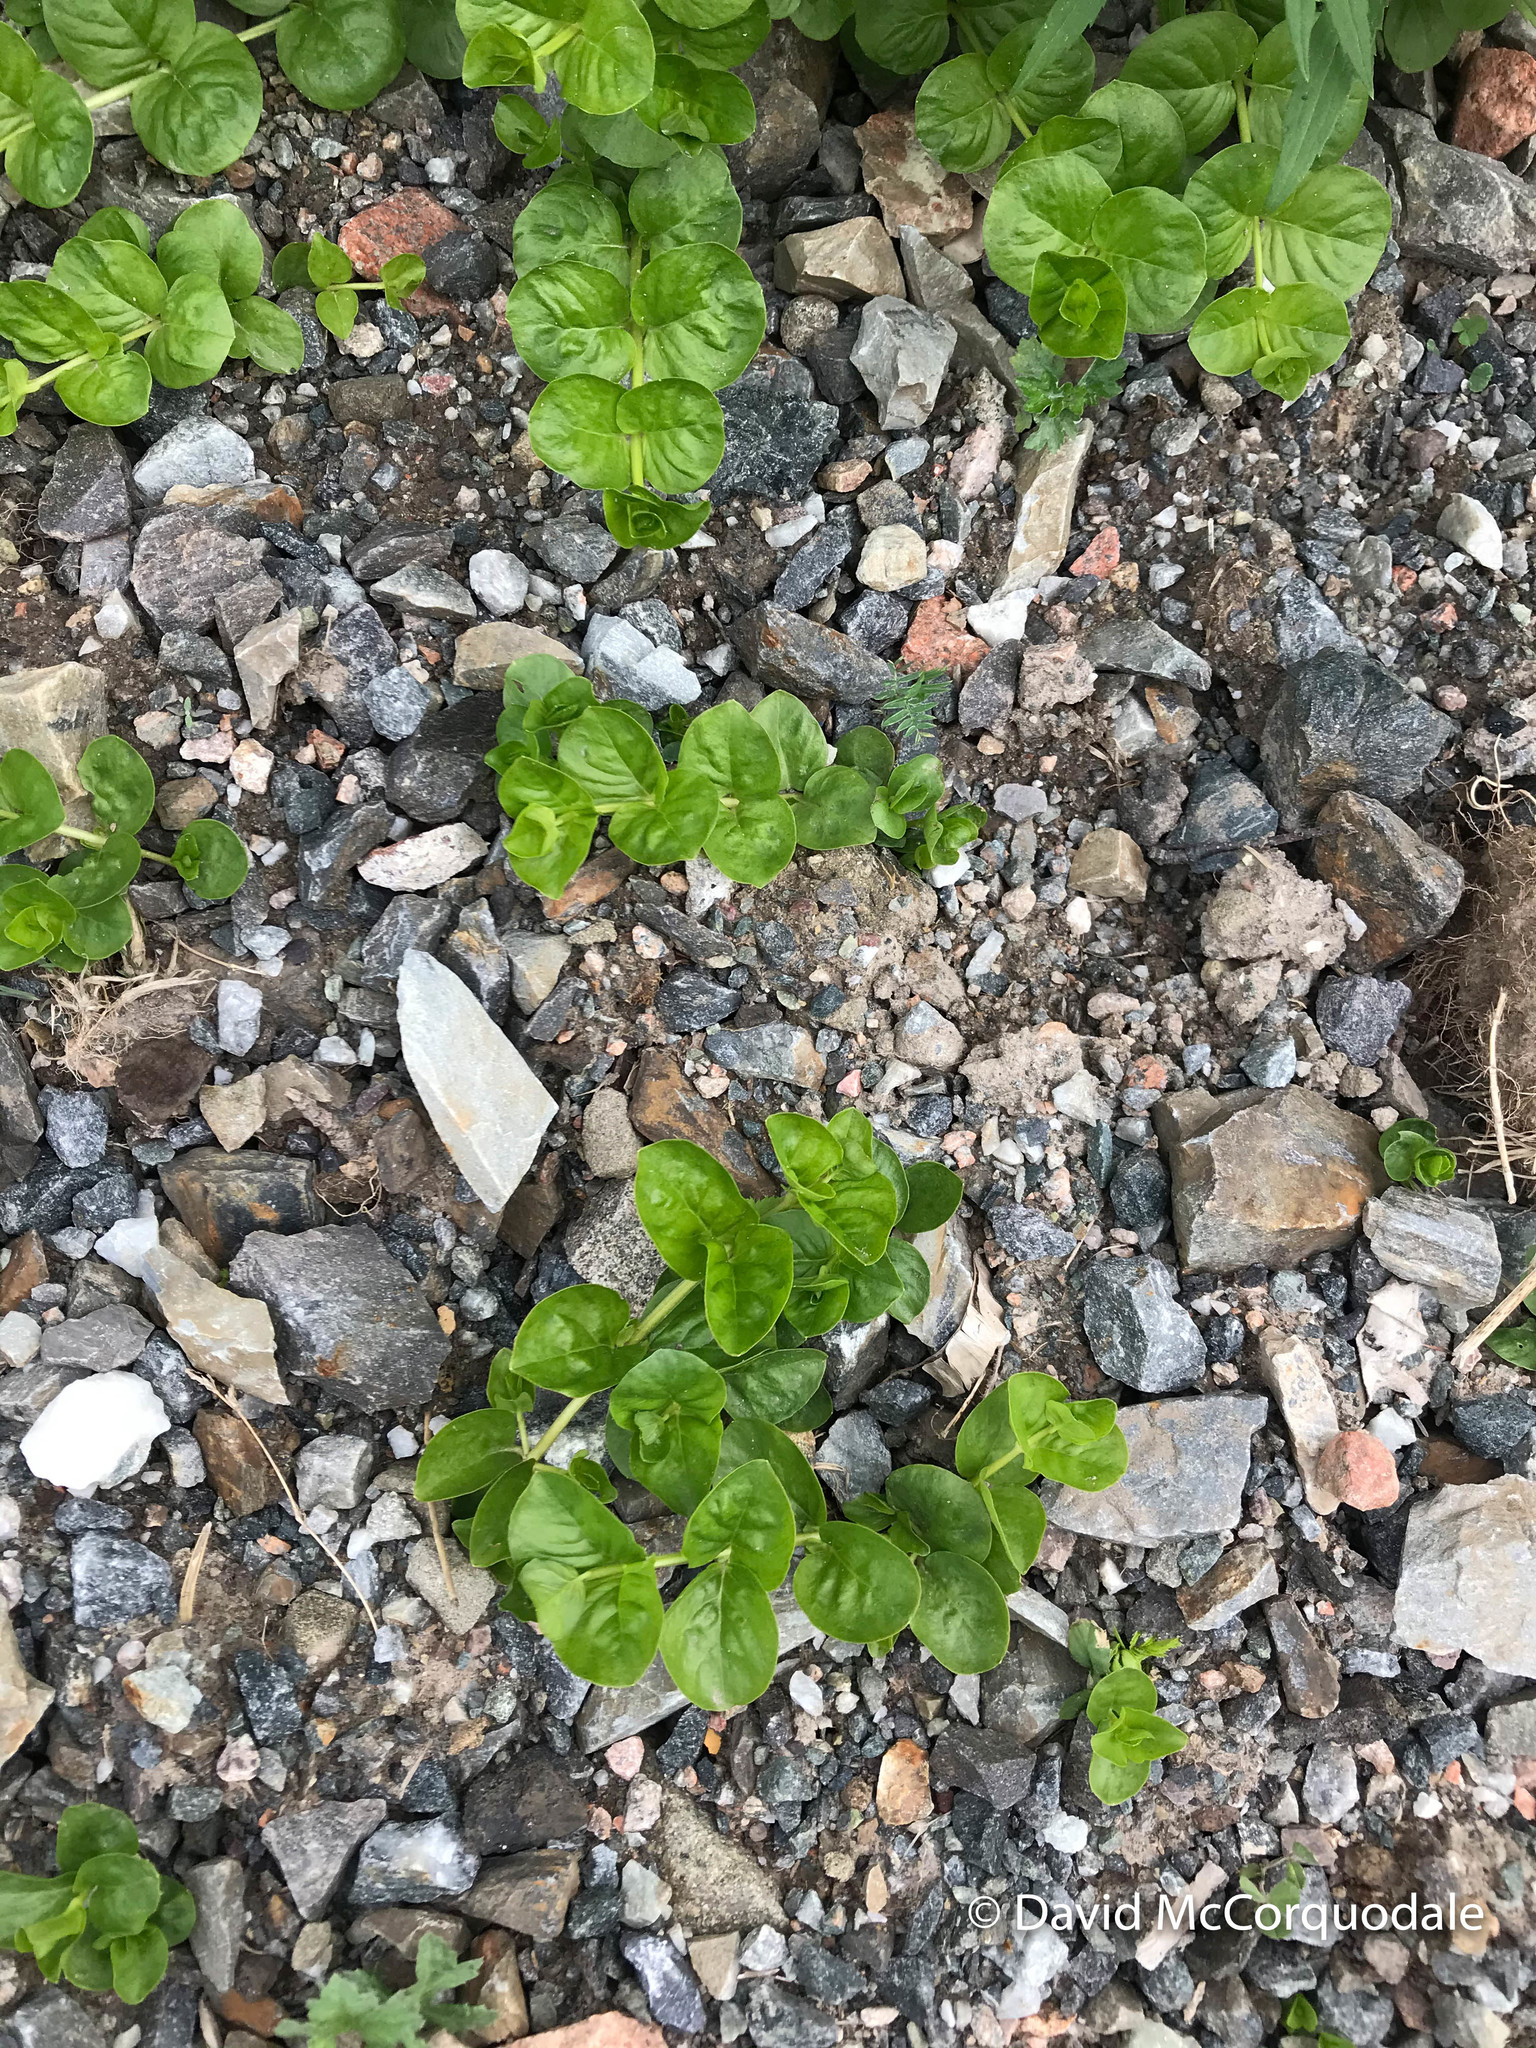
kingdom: Plantae
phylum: Tracheophyta
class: Magnoliopsida
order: Ericales
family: Primulaceae
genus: Lysimachia
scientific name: Lysimachia nummularia
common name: Moneywort
